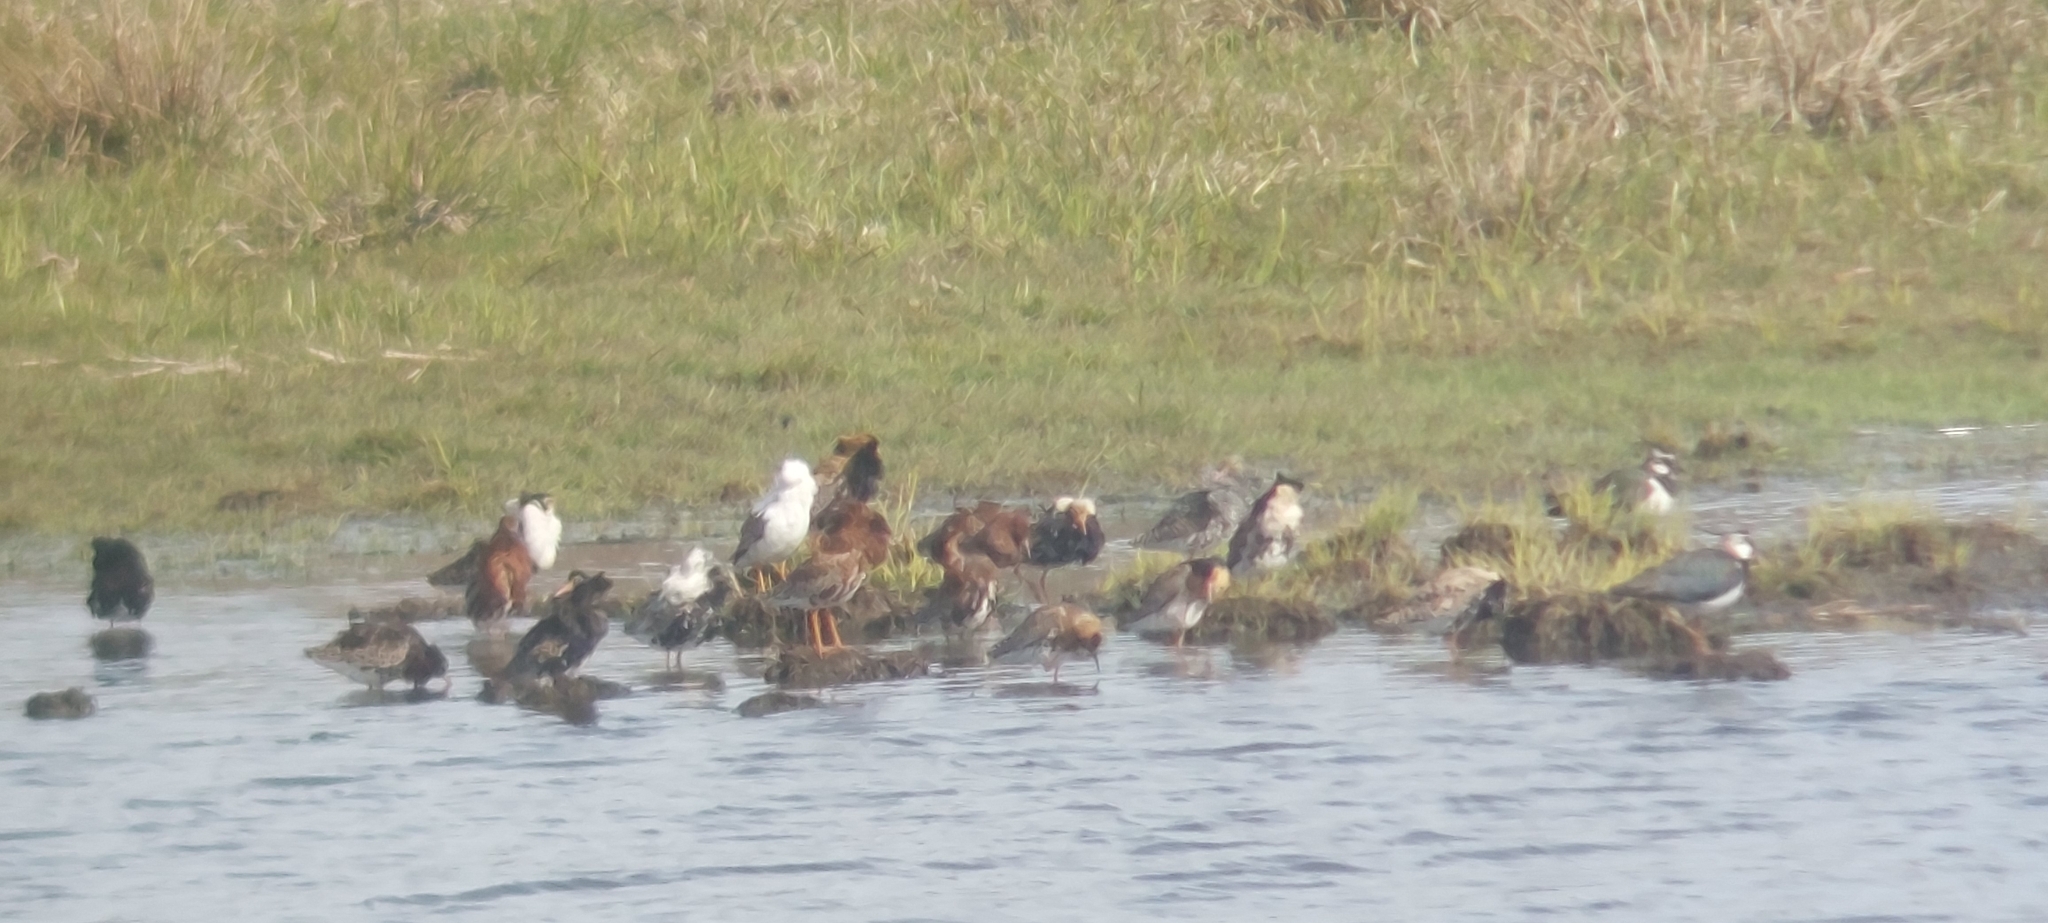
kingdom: Animalia
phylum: Chordata
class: Aves
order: Charadriiformes
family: Scolopacidae
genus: Calidris
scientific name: Calidris pugnax
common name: Ruff
